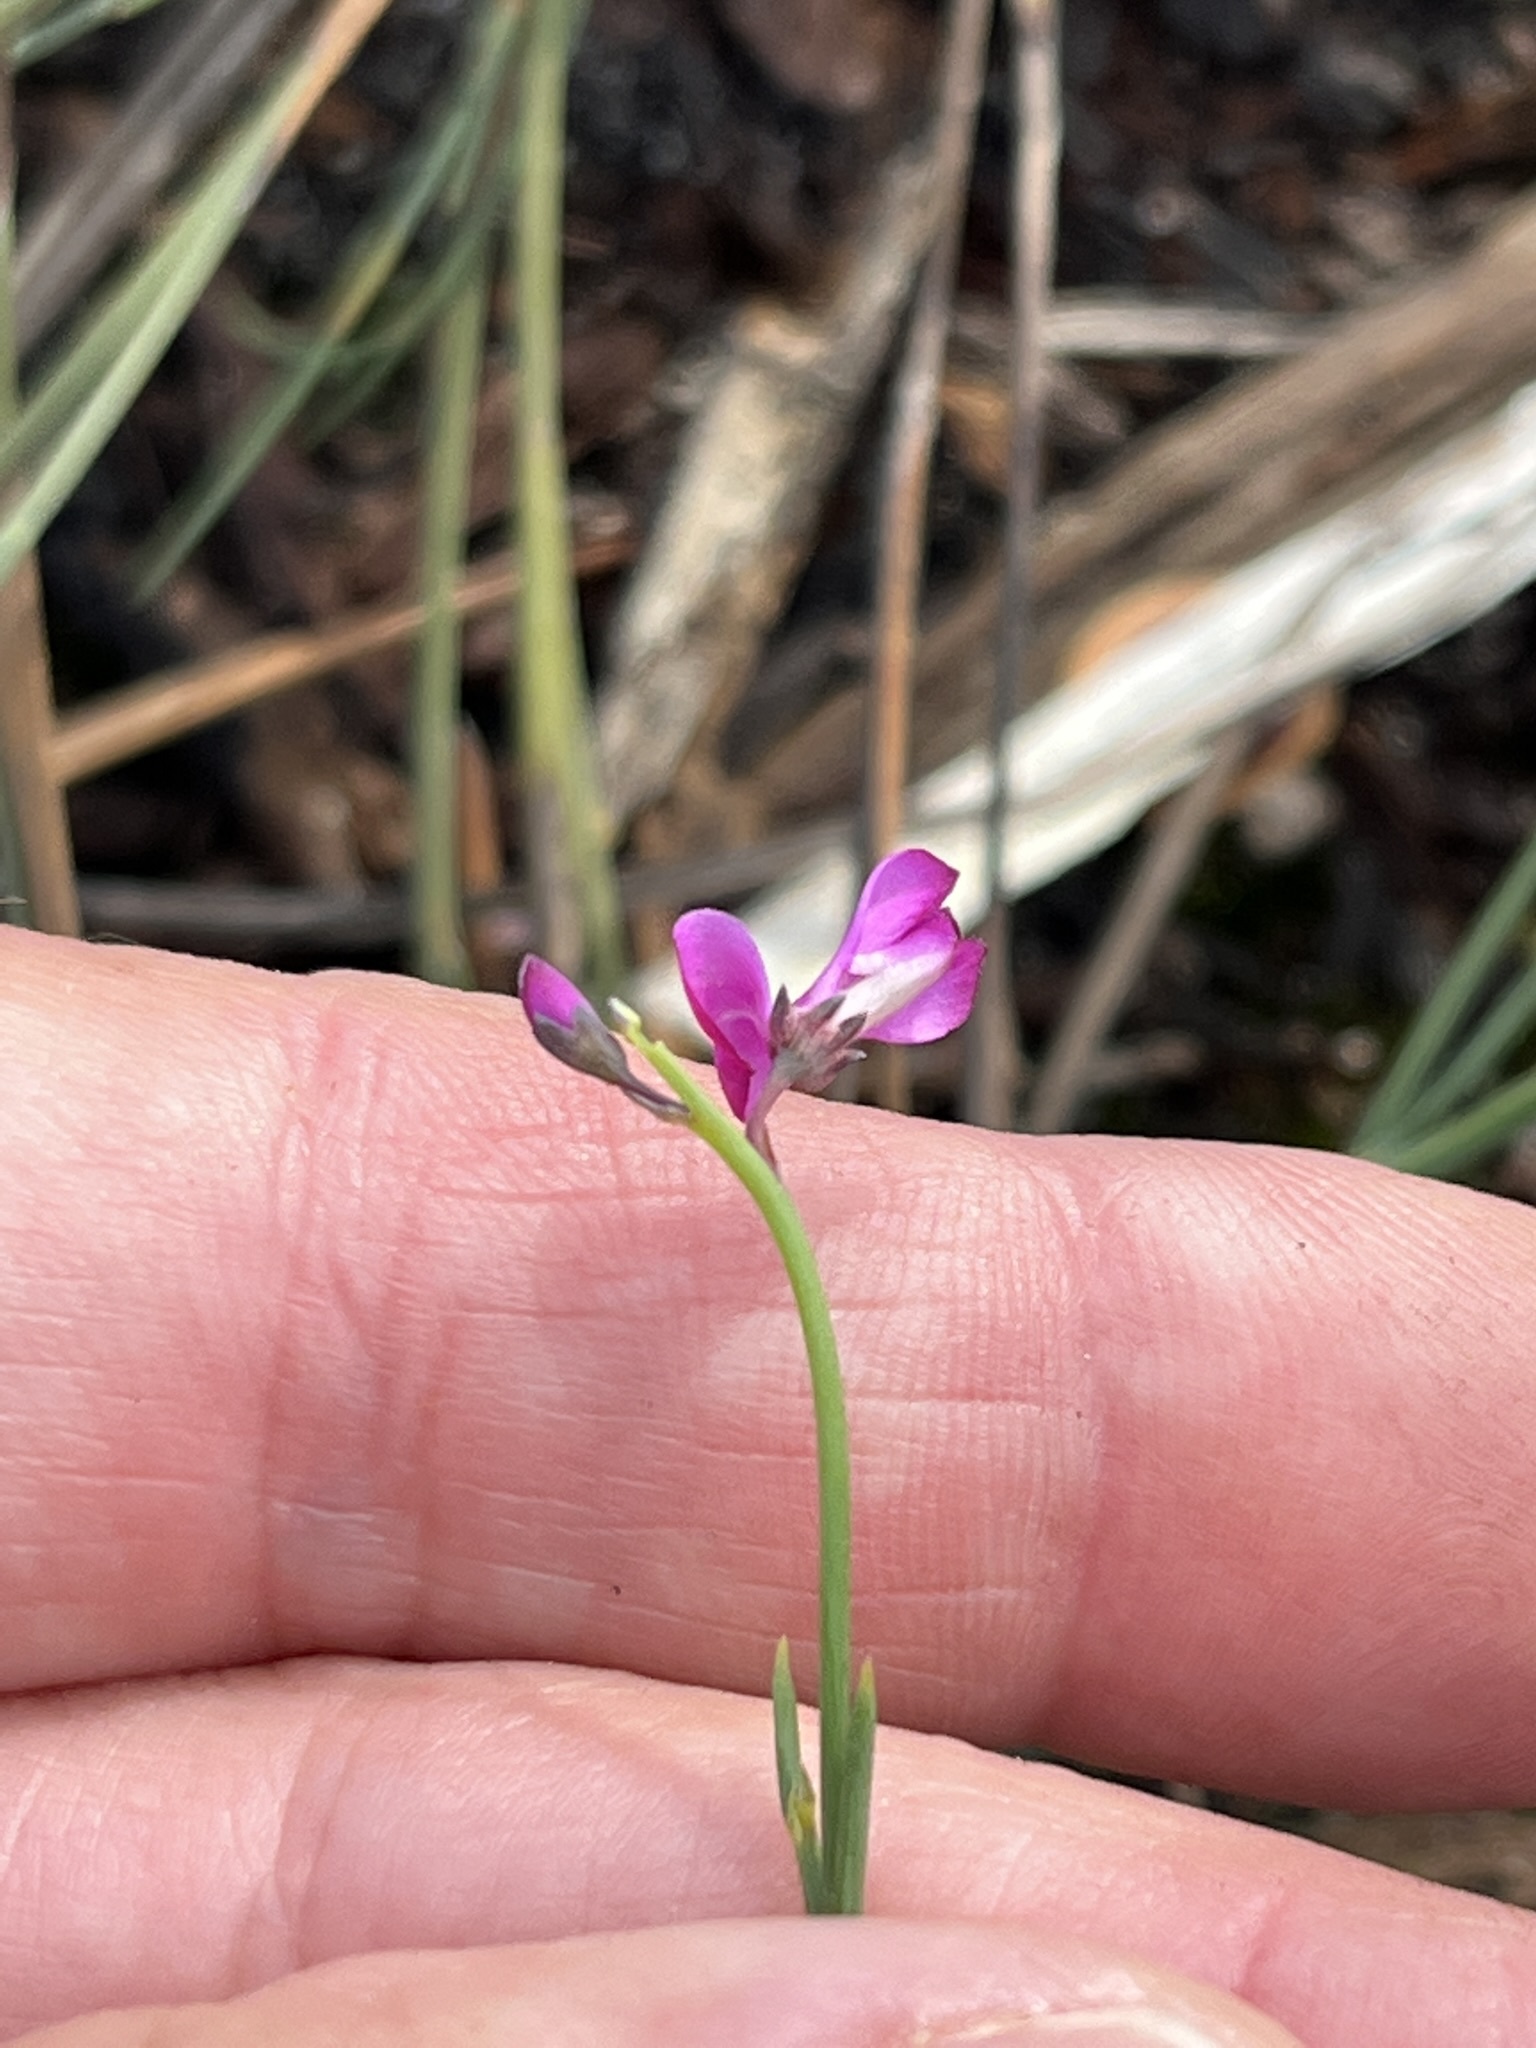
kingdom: Plantae
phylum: Tracheophyta
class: Magnoliopsida
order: Fabales
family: Fabaceae
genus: Indigofera
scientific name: Indigofera ionii
